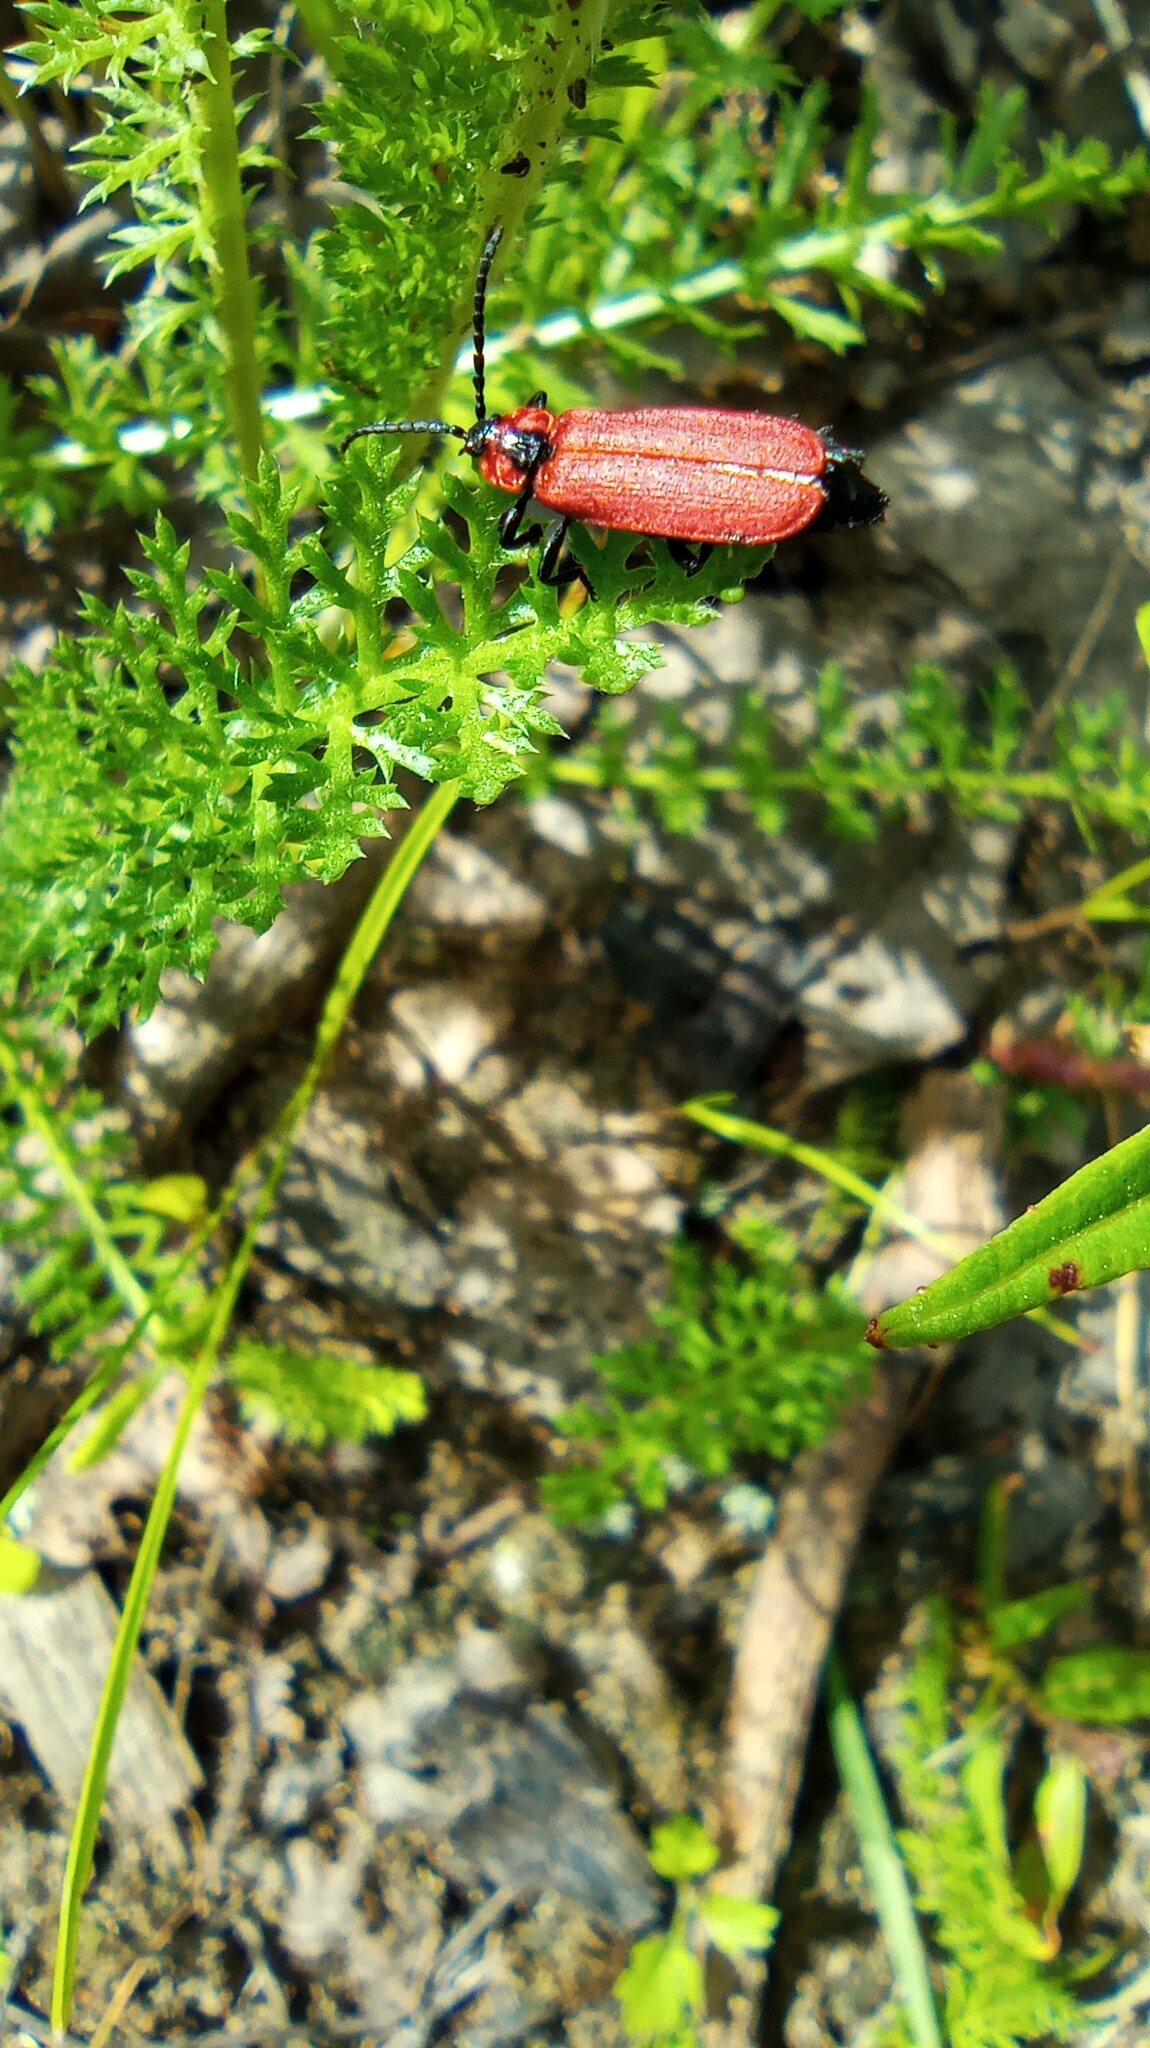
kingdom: Animalia
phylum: Arthropoda
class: Insecta
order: Coleoptera
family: Lycidae
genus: Lygistopterus
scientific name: Lygistopterus sanguineus
